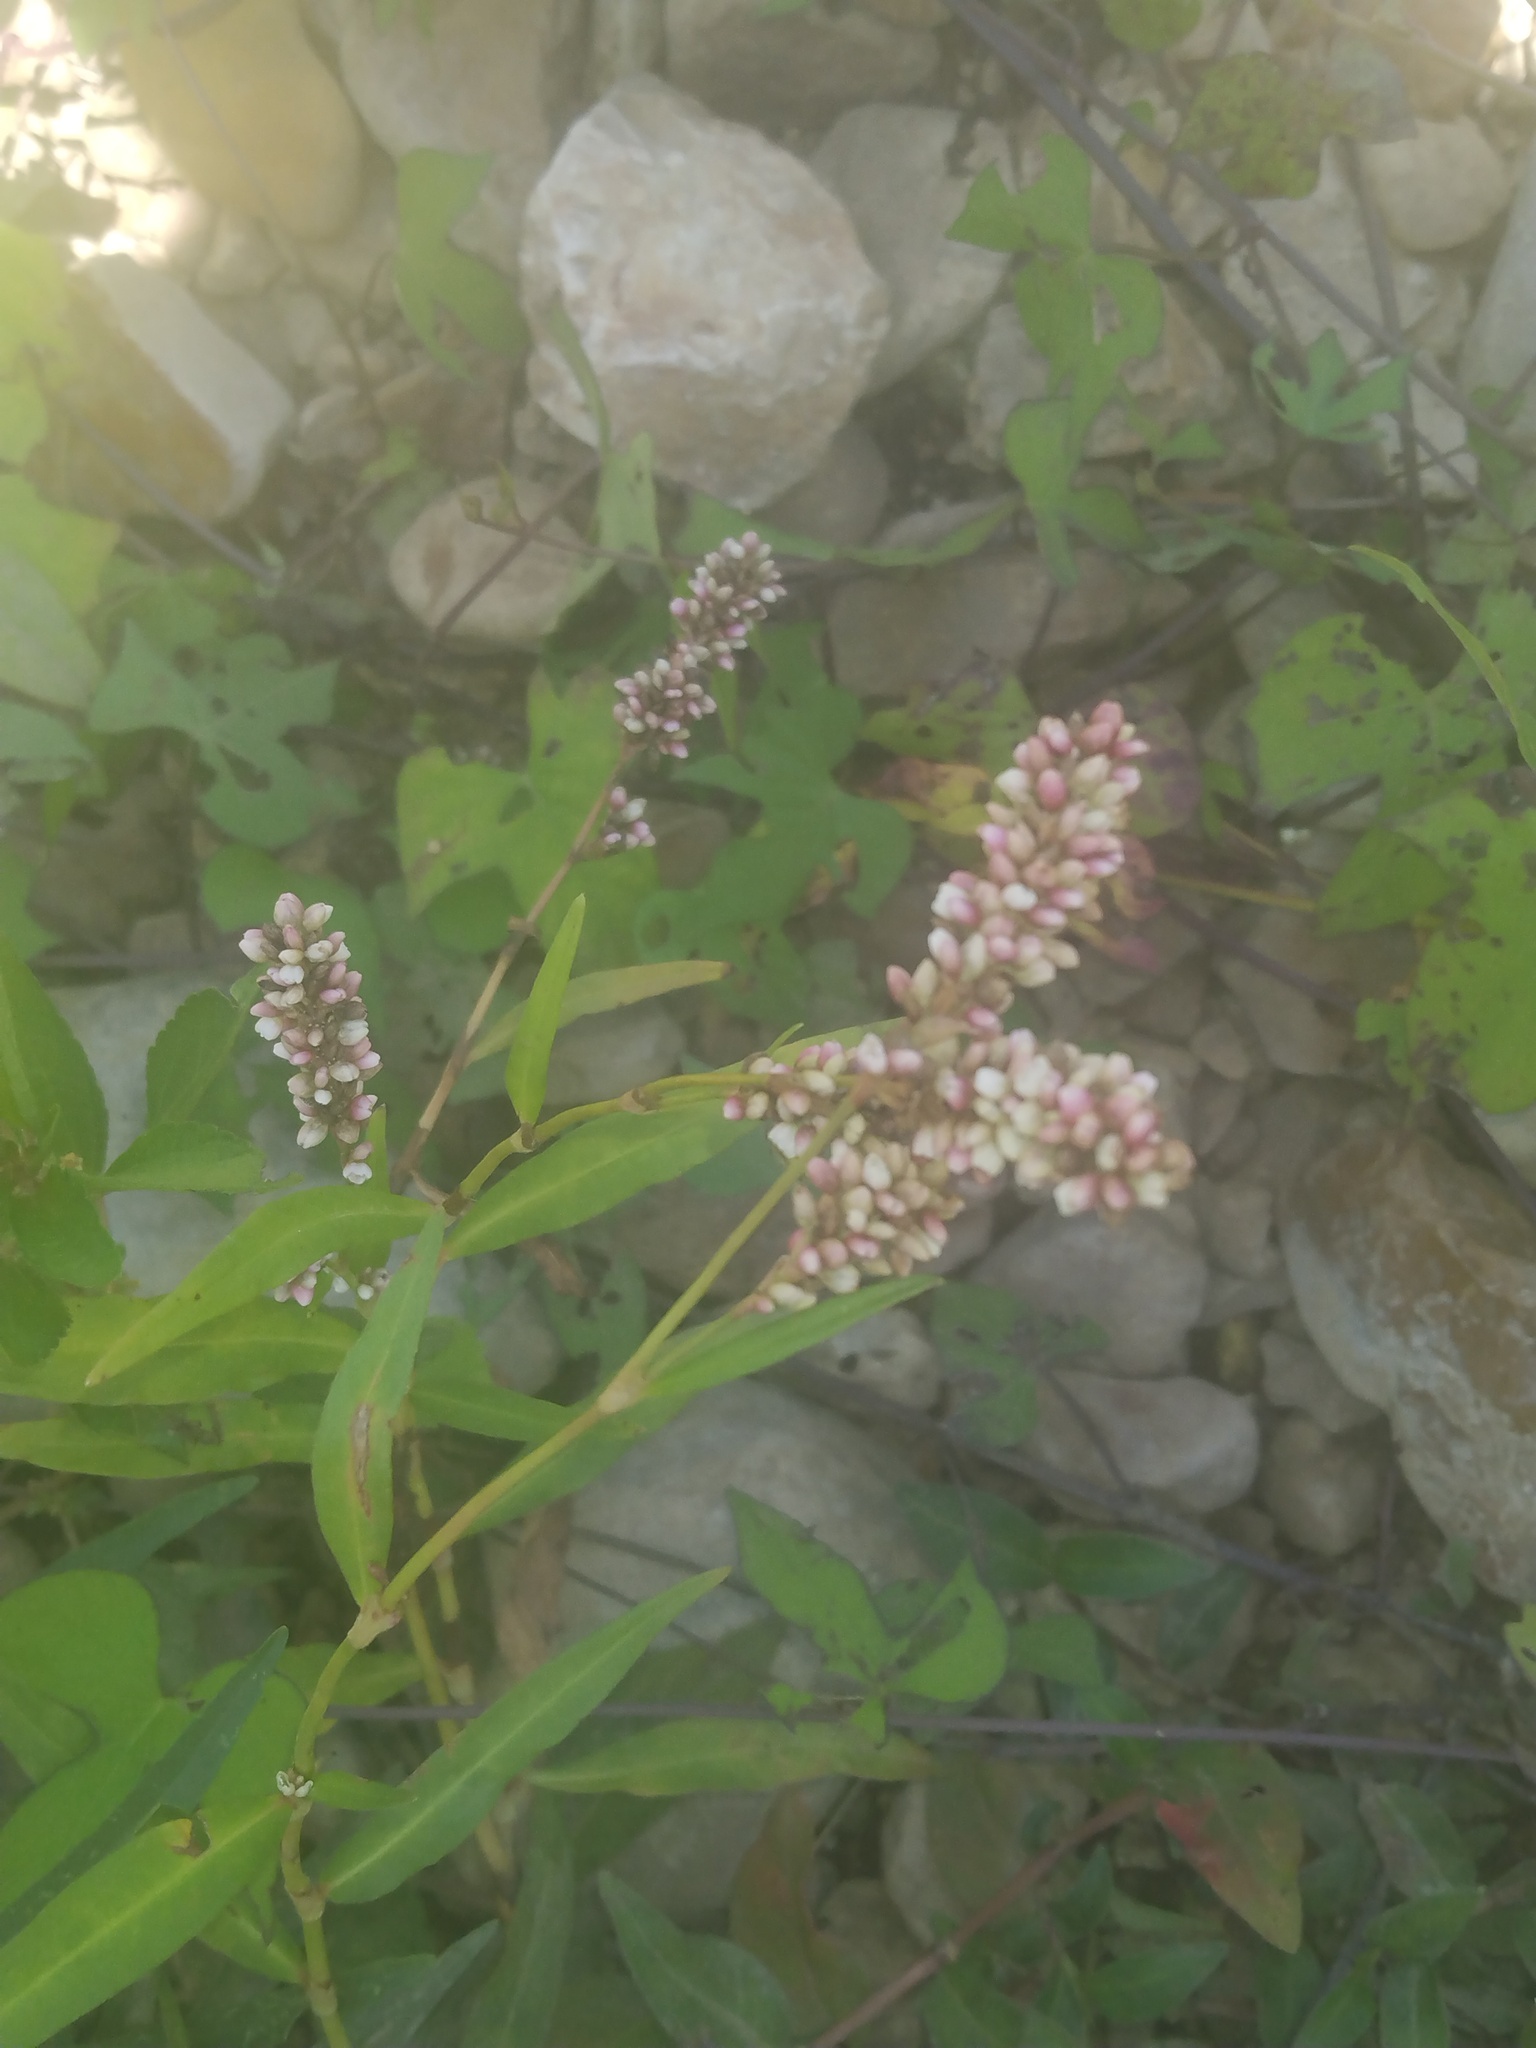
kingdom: Plantae
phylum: Tracheophyta
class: Magnoliopsida
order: Caryophyllales
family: Polygonaceae
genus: Persicaria
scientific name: Persicaria pensylvanica
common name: Pinkweed
